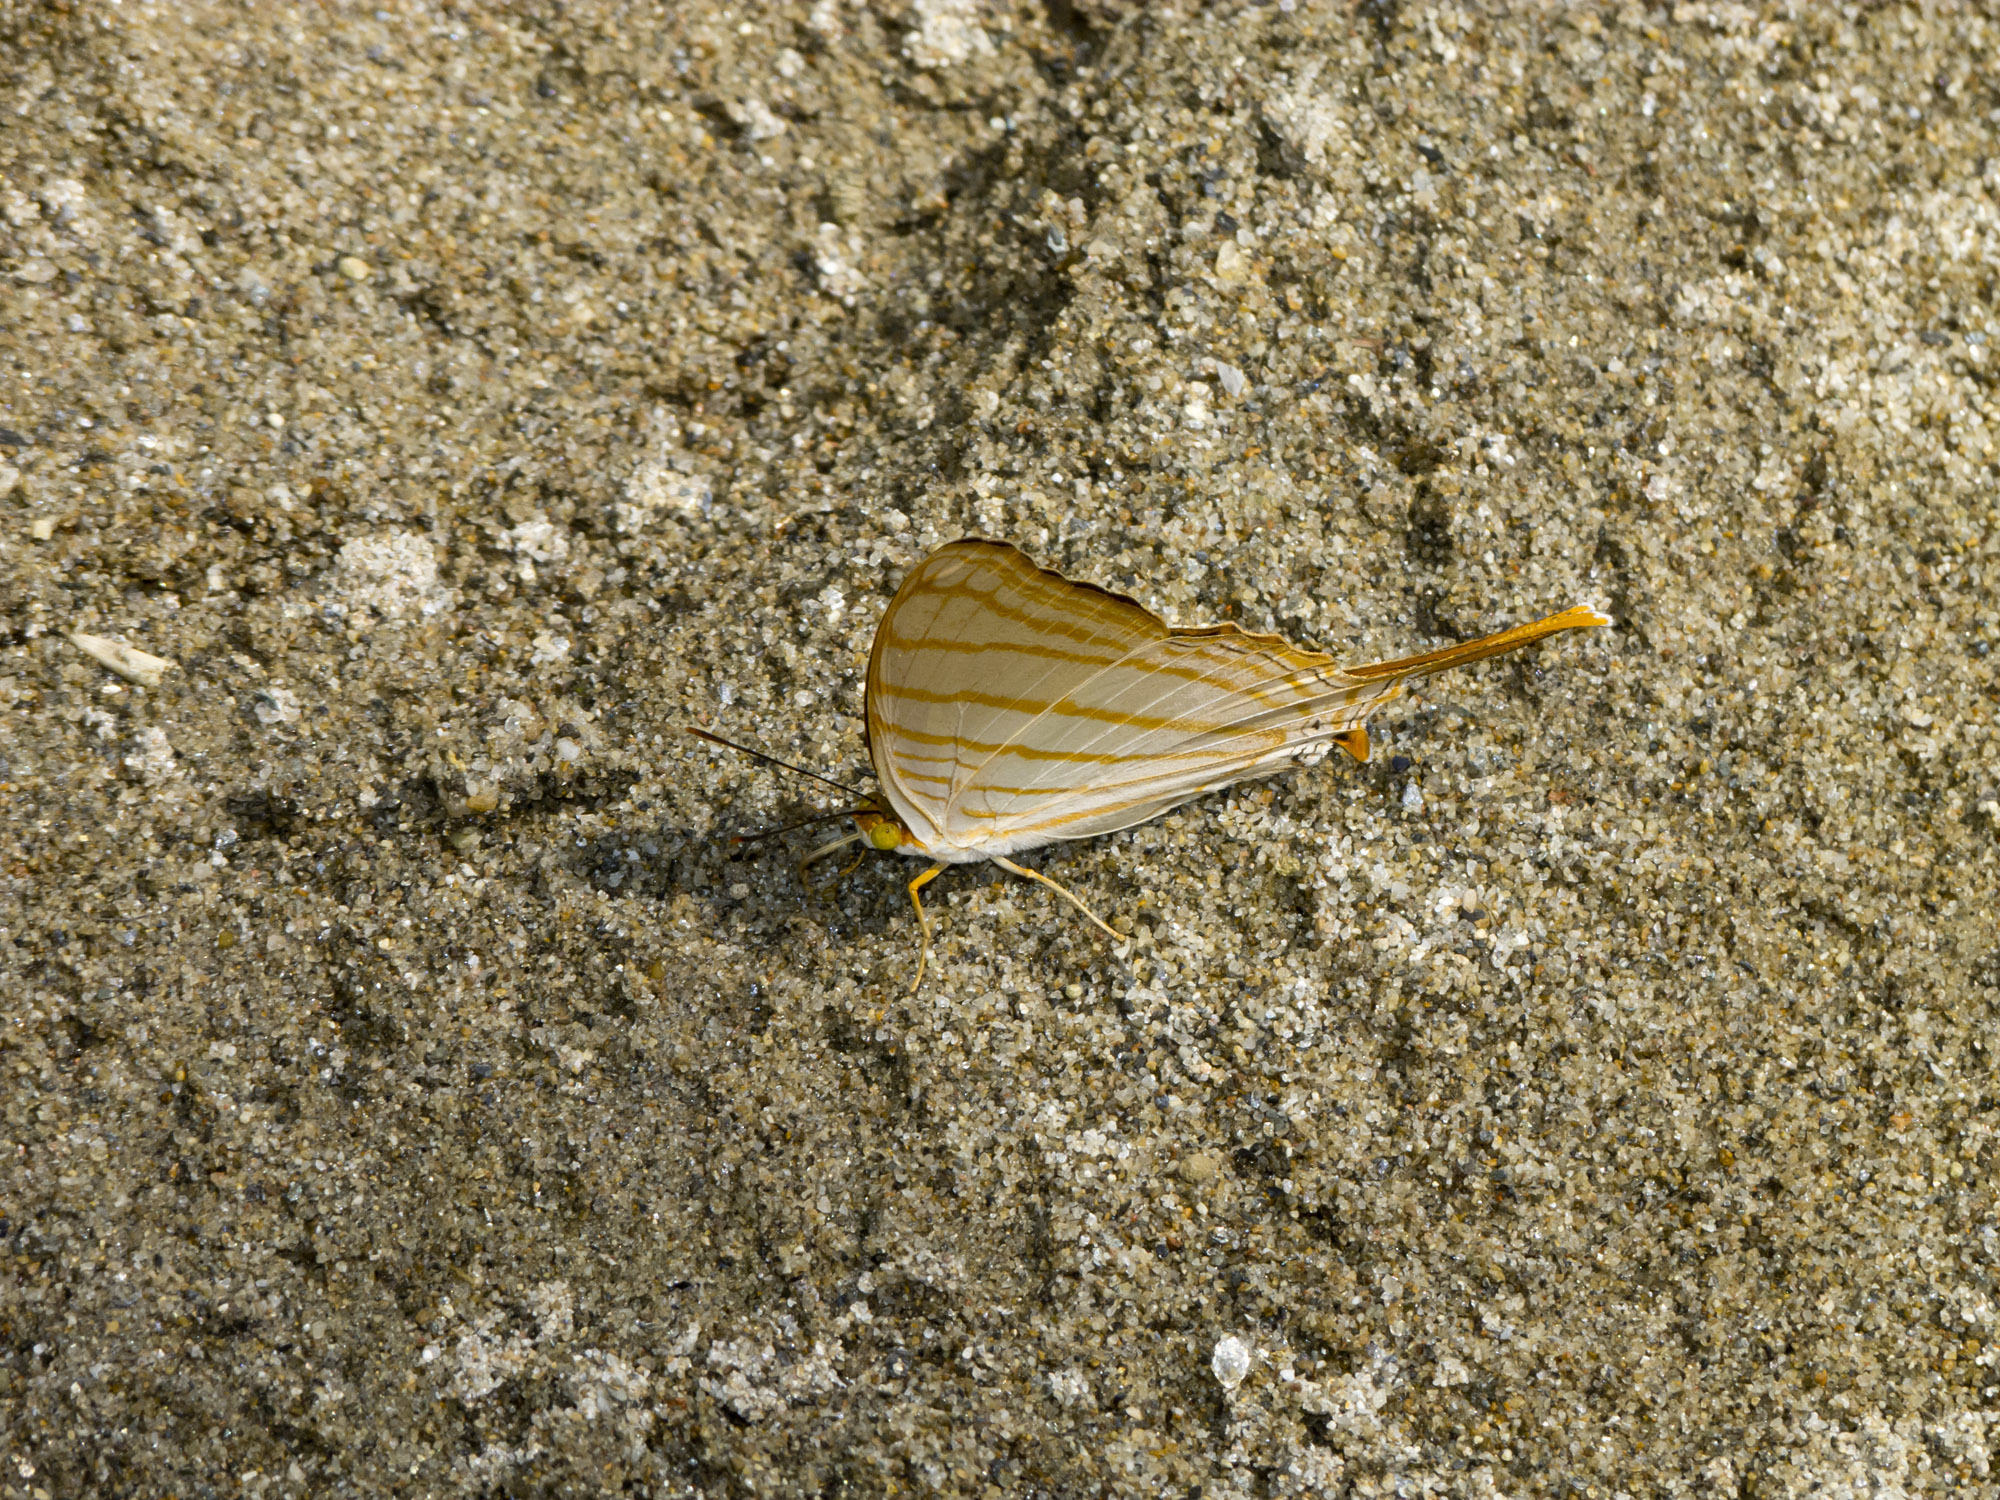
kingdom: Animalia
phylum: Arthropoda
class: Insecta
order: Lepidoptera
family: Nymphalidae
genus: Marpesia
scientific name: Marpesia berania
